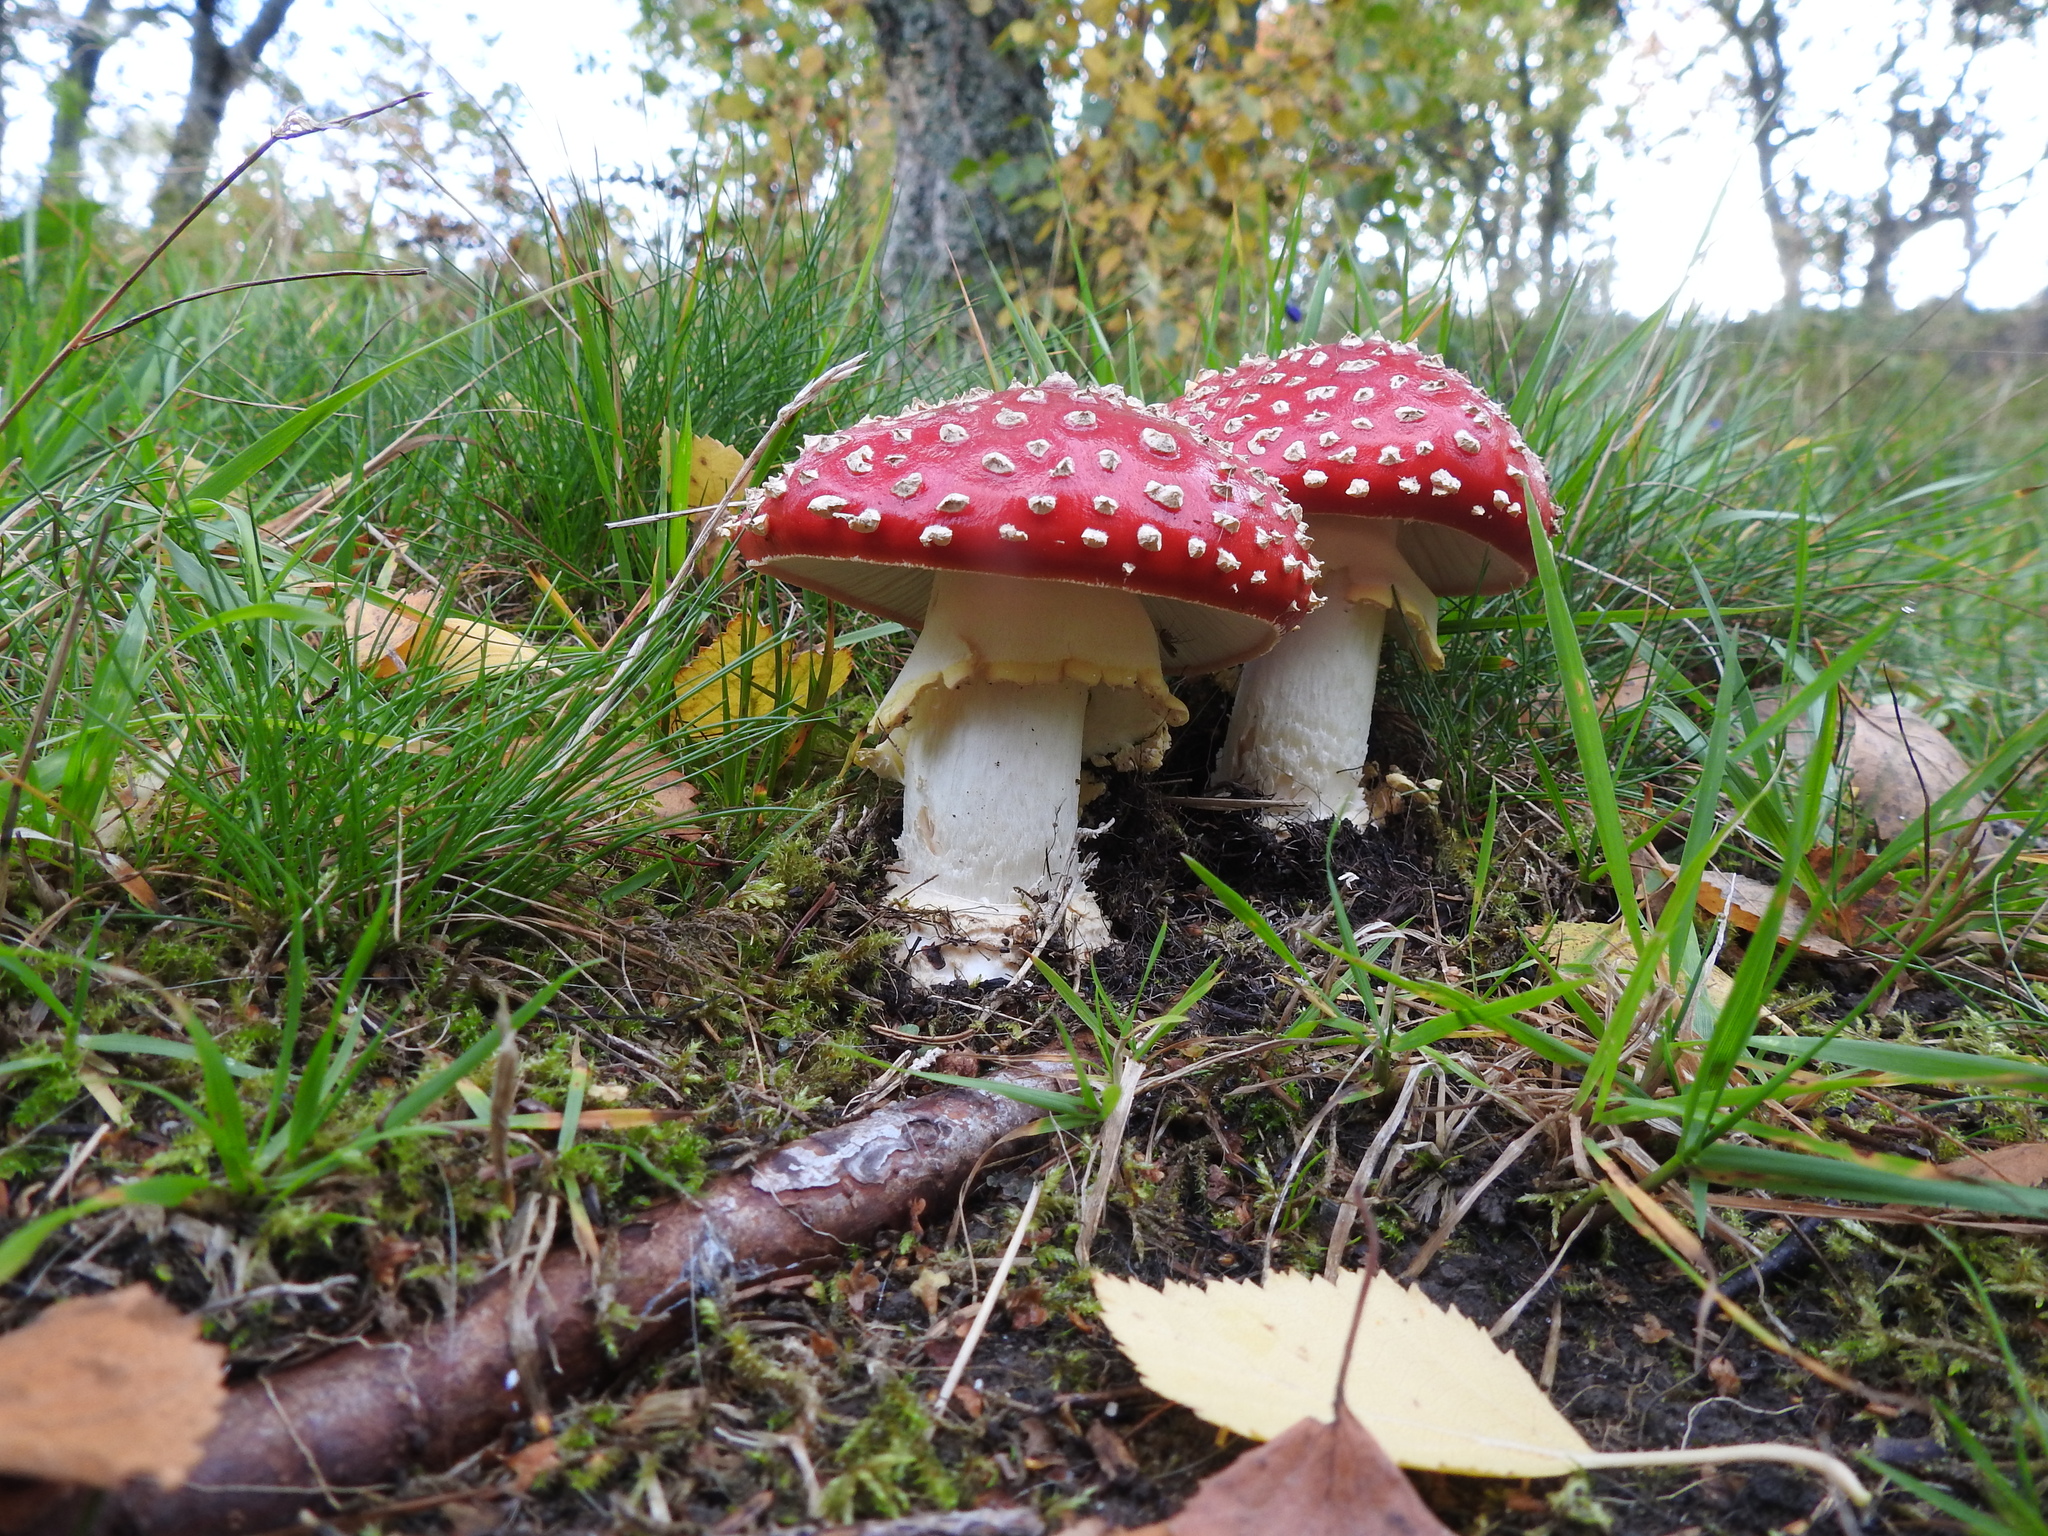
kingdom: Fungi
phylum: Basidiomycota
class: Agaricomycetes
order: Agaricales
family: Amanitaceae
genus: Amanita
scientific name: Amanita muscaria
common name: Fly agaric
